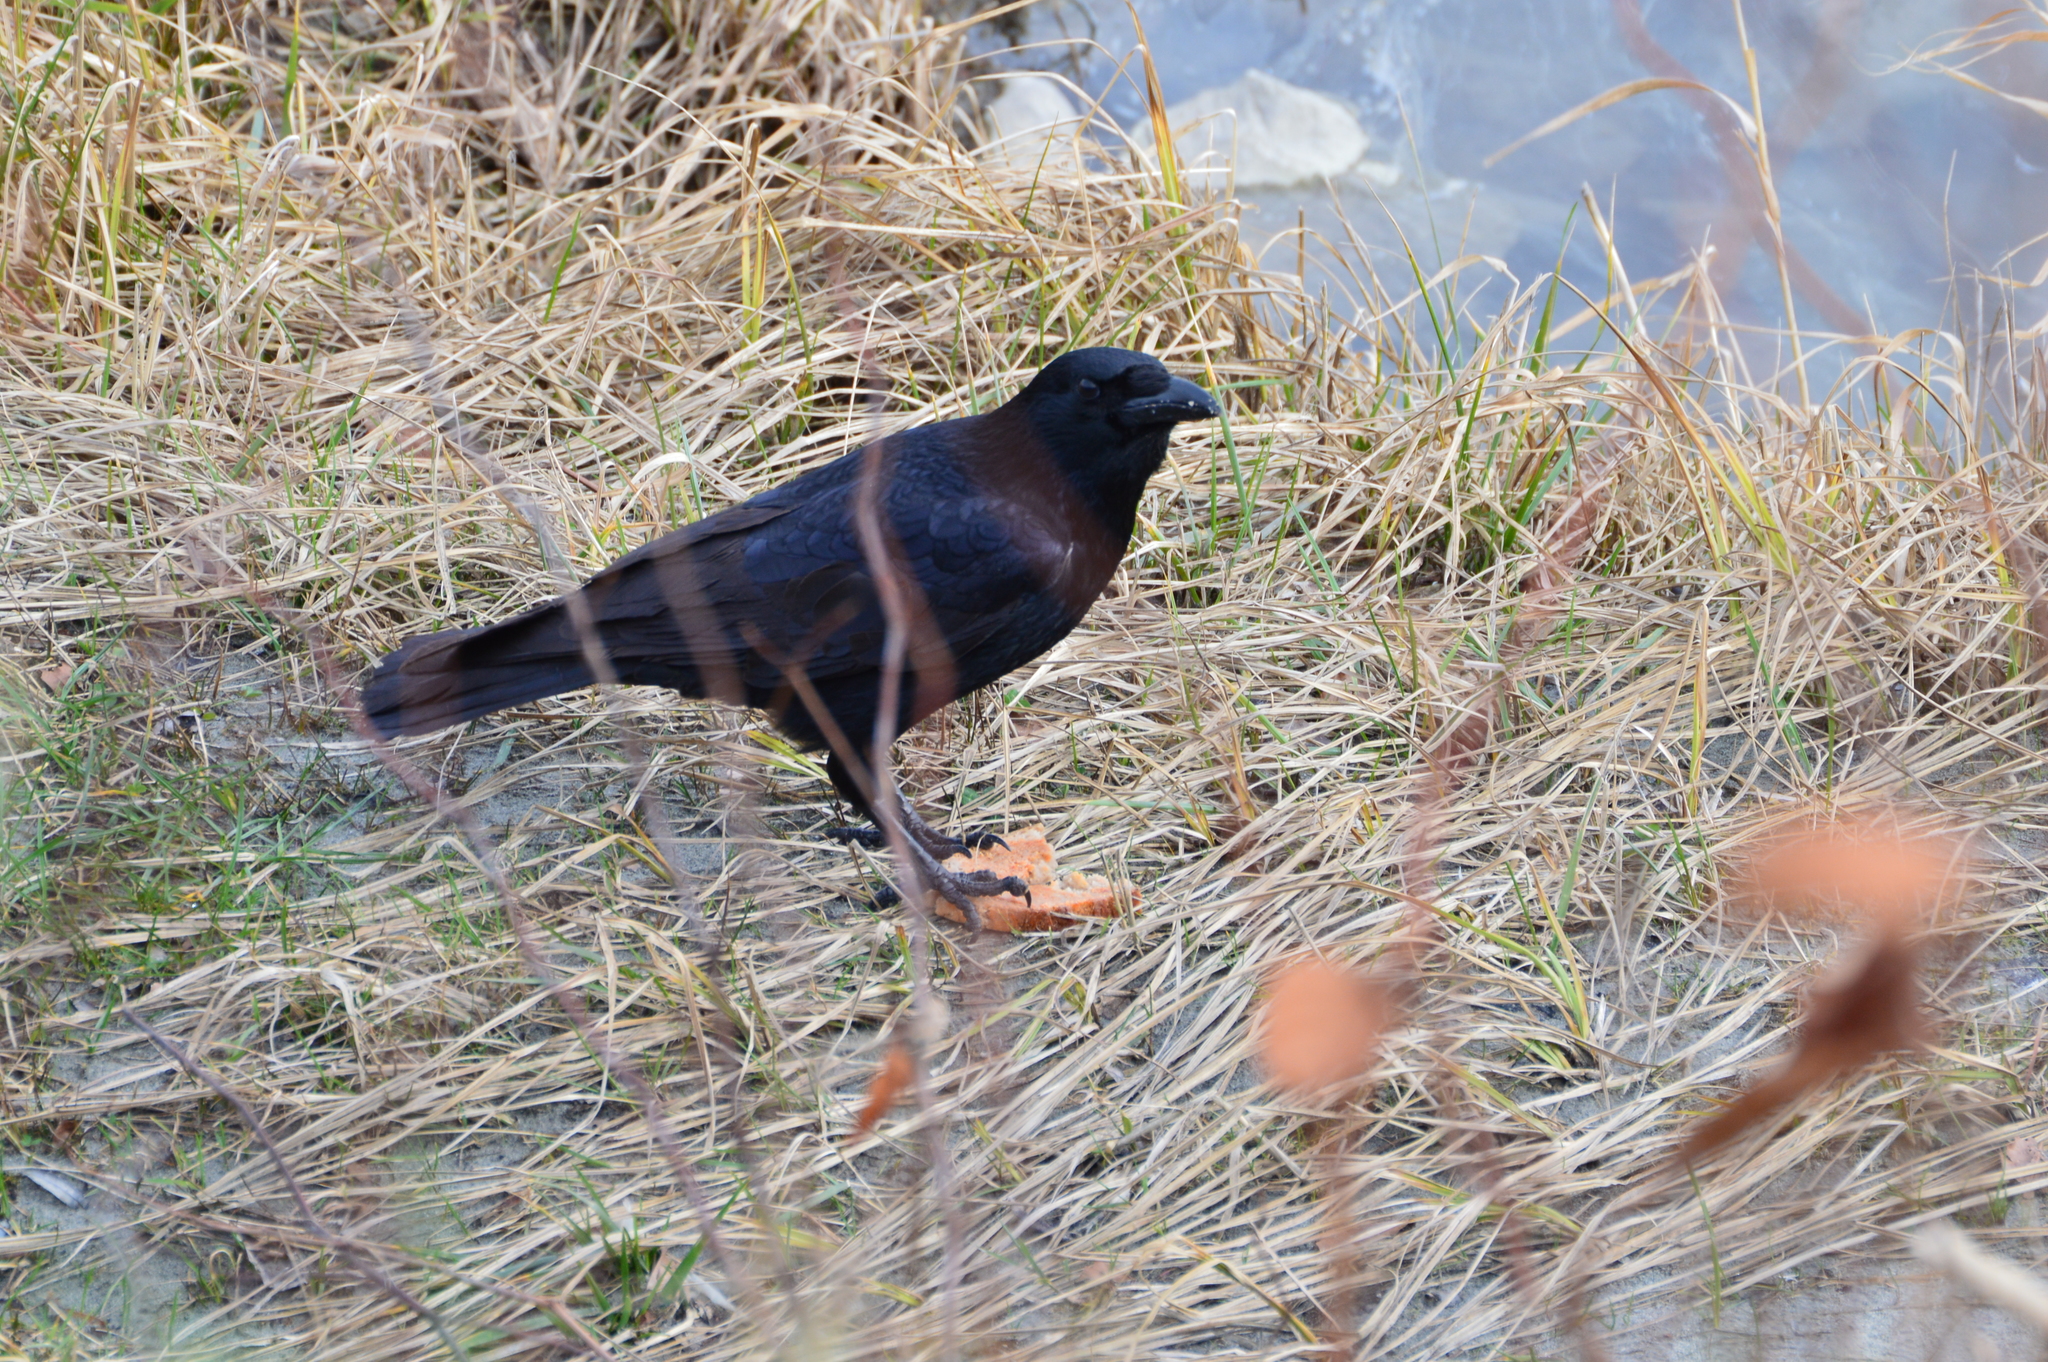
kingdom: Animalia
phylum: Chordata
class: Aves
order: Passeriformes
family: Corvidae
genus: Corvus
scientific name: Corvus corone
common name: Carrion crow
